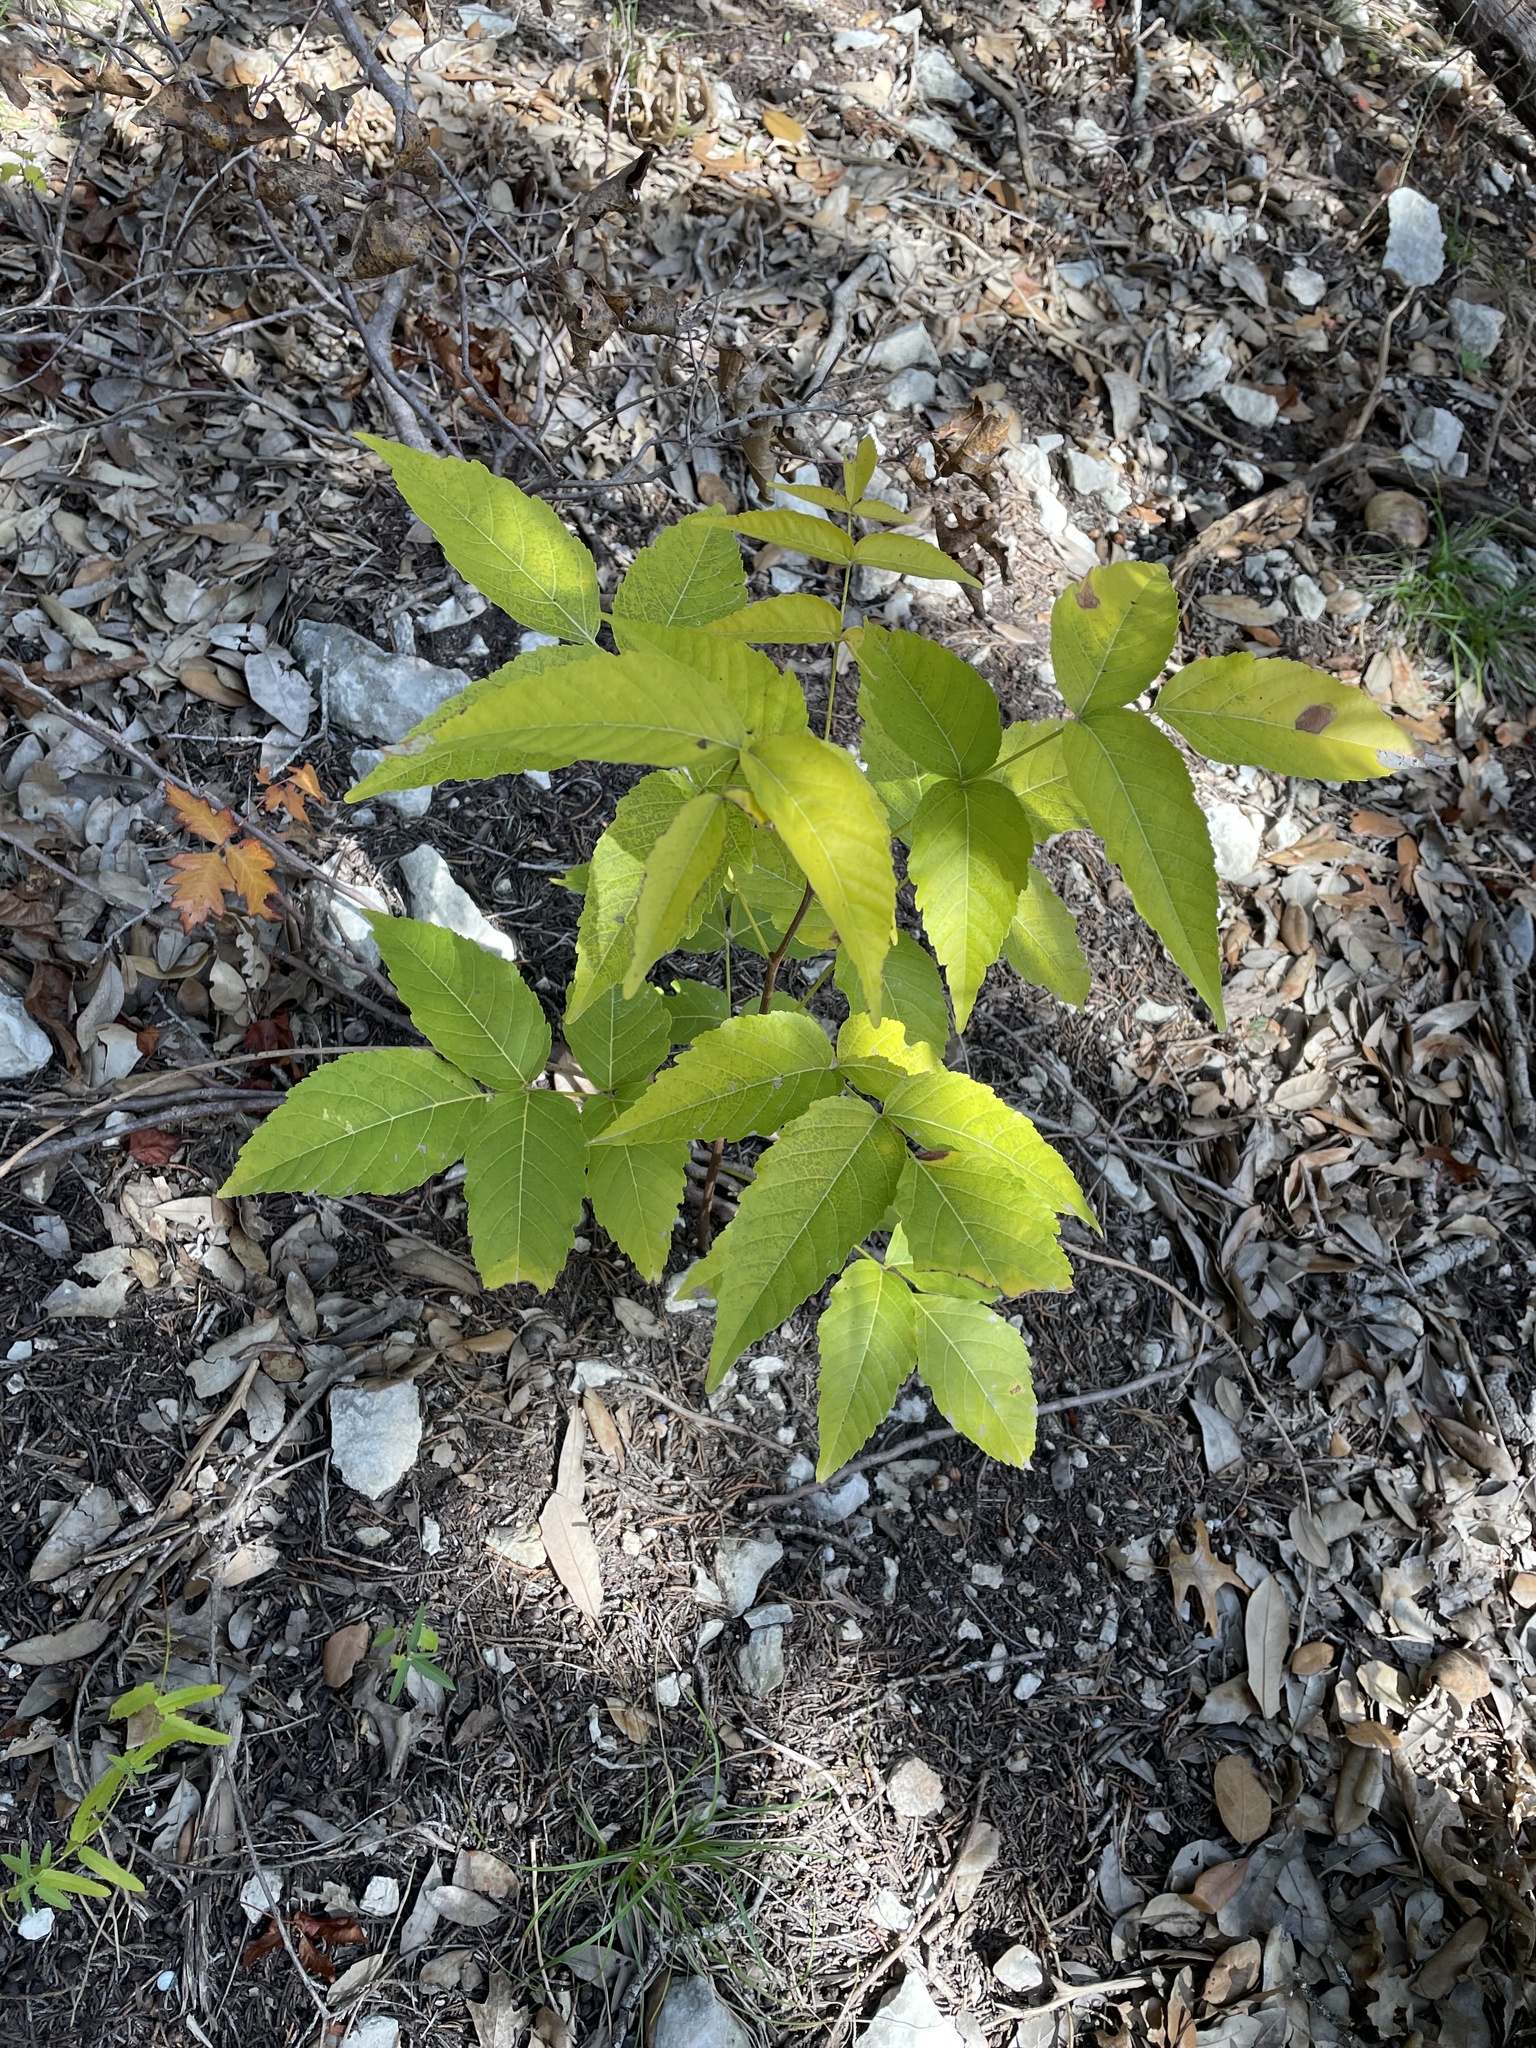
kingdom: Plantae
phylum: Tracheophyta
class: Magnoliopsida
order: Sapindales
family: Sapindaceae
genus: Ungnadia
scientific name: Ungnadia speciosa
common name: Texas-buckeye
